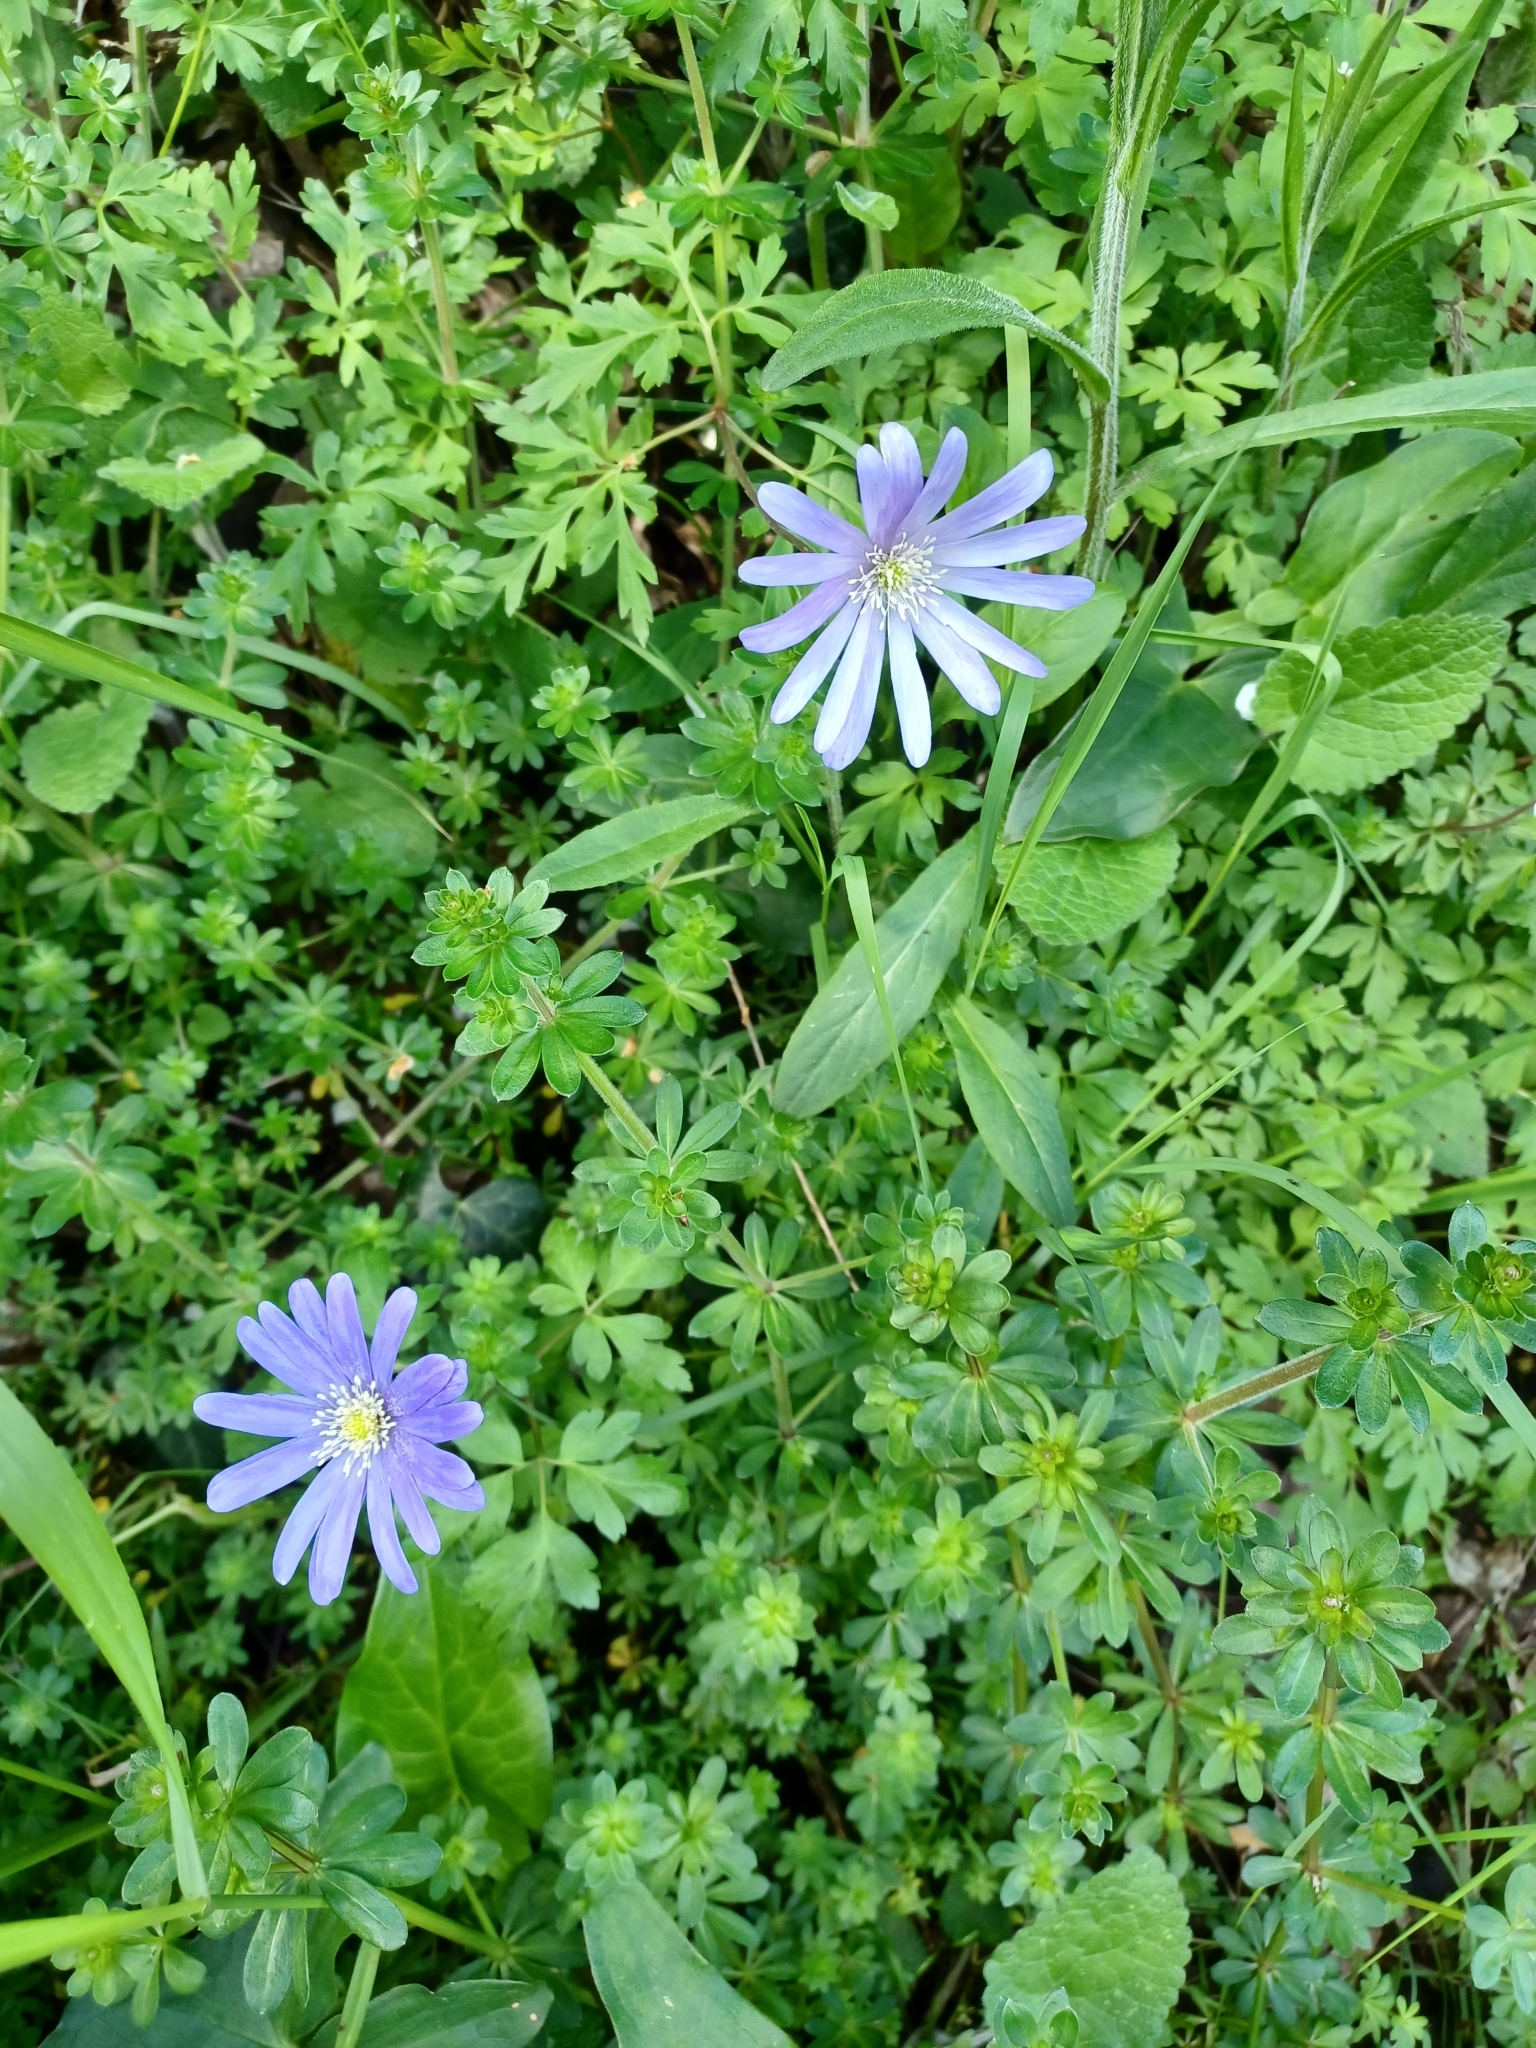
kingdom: Plantae
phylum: Tracheophyta
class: Magnoliopsida
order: Ranunculales
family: Ranunculaceae
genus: Anemone
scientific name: Anemone apennina
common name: Blue anemone
